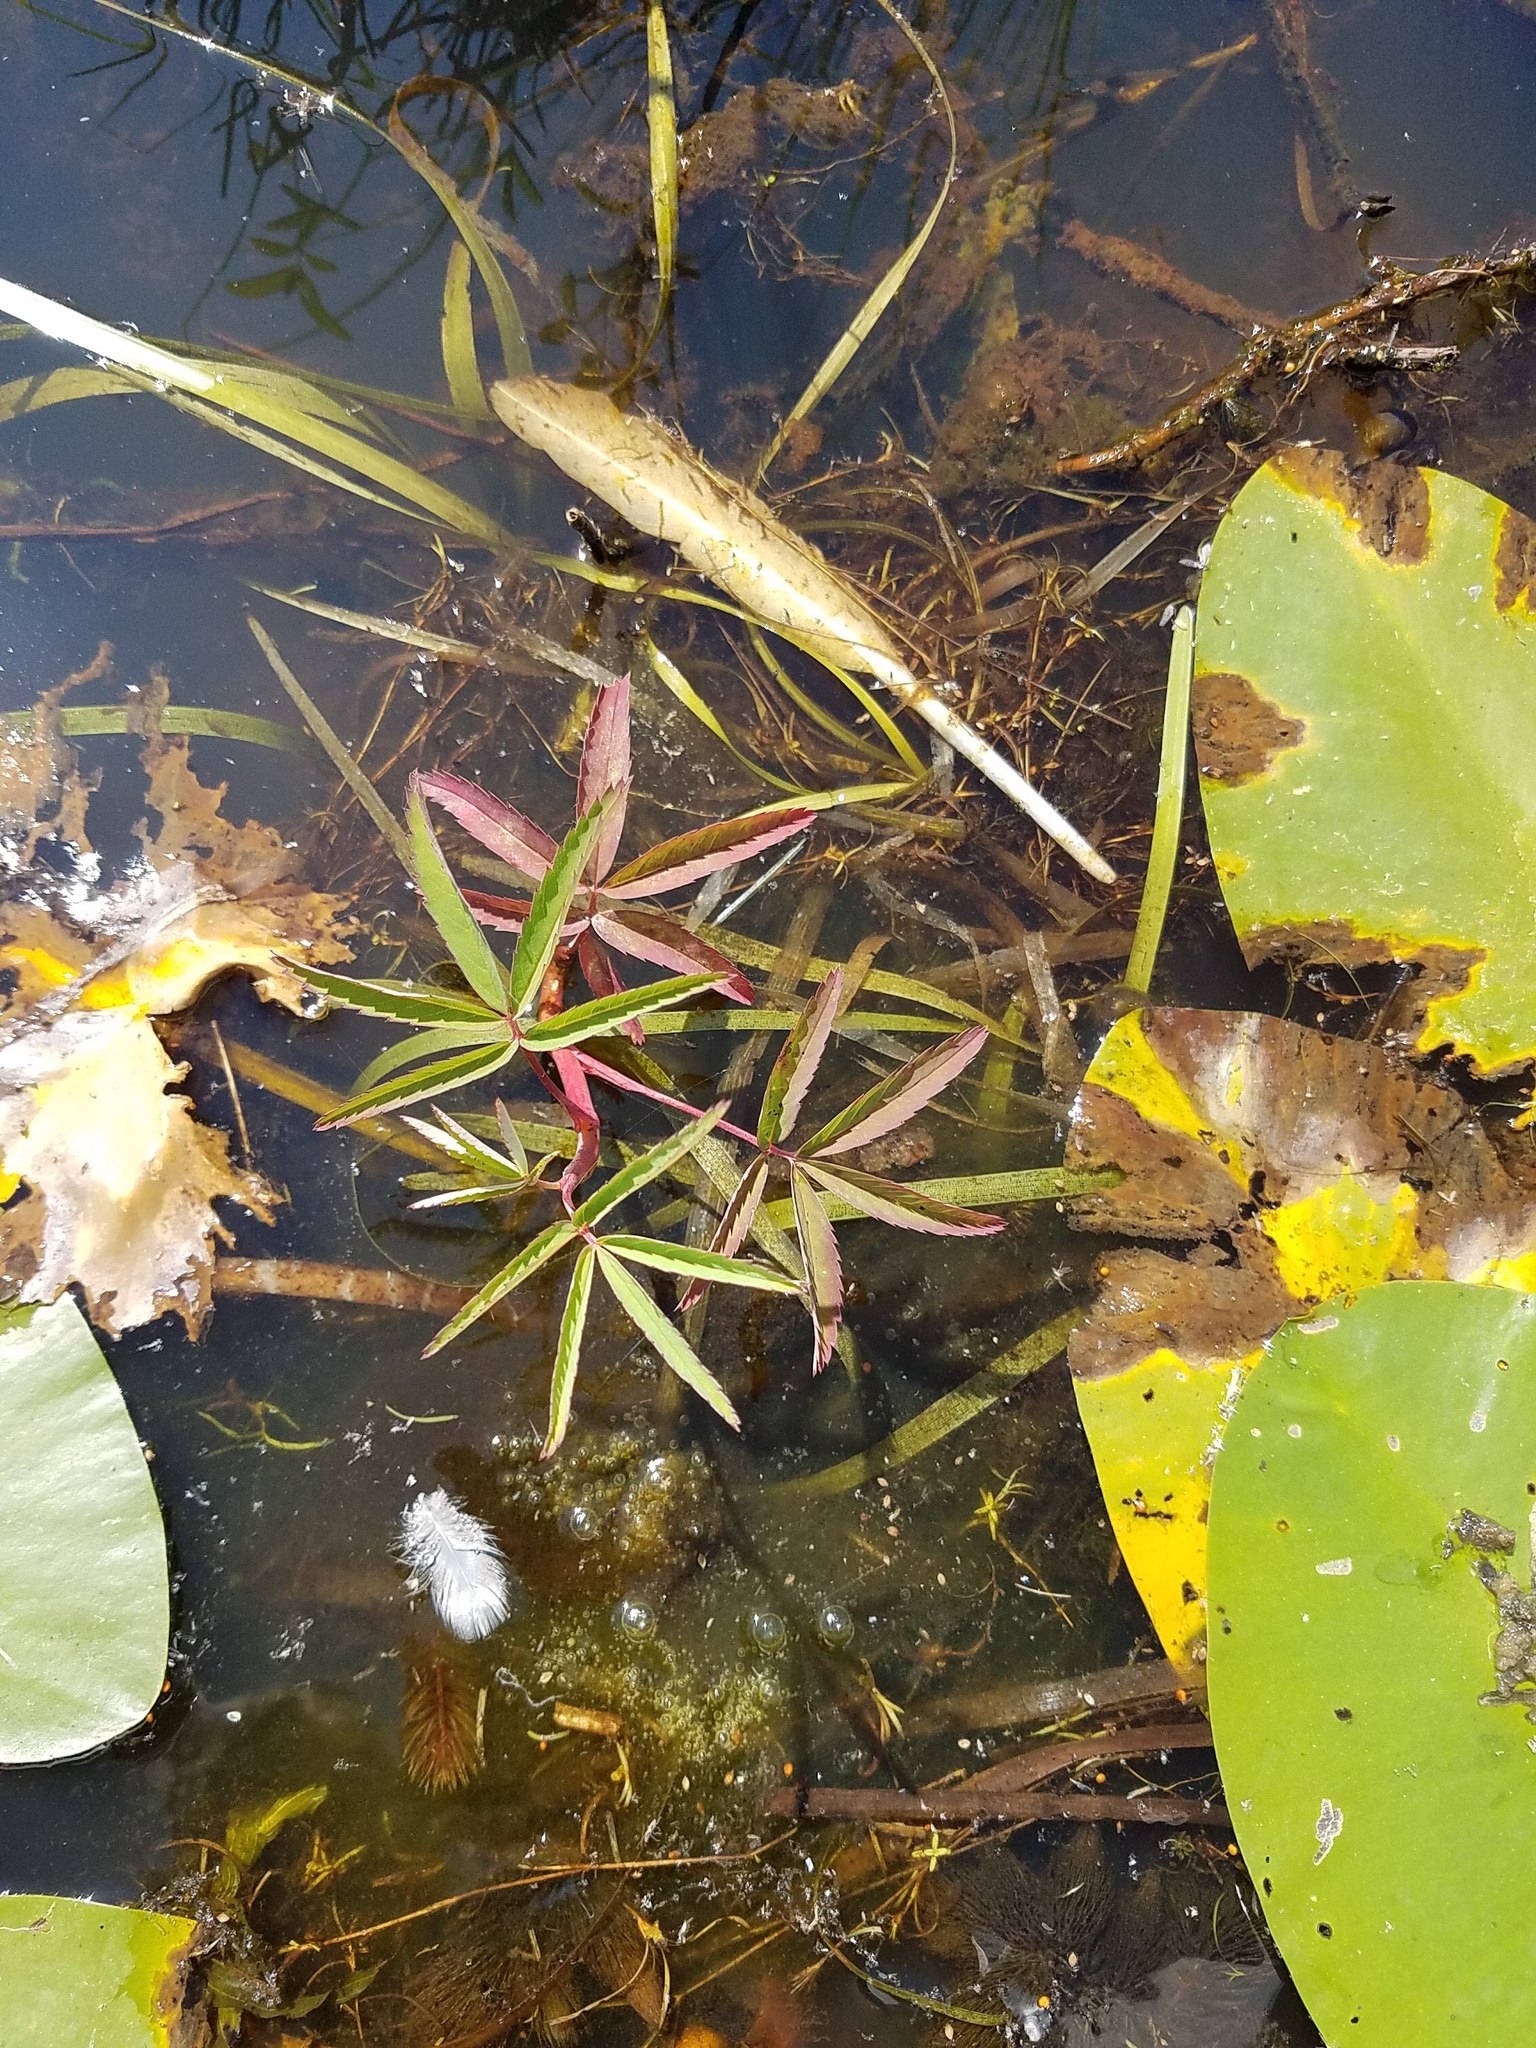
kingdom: Plantae
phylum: Tracheophyta
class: Magnoliopsida
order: Rosales
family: Rosaceae
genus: Comarum
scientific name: Comarum palustre
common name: Marsh cinquefoil
